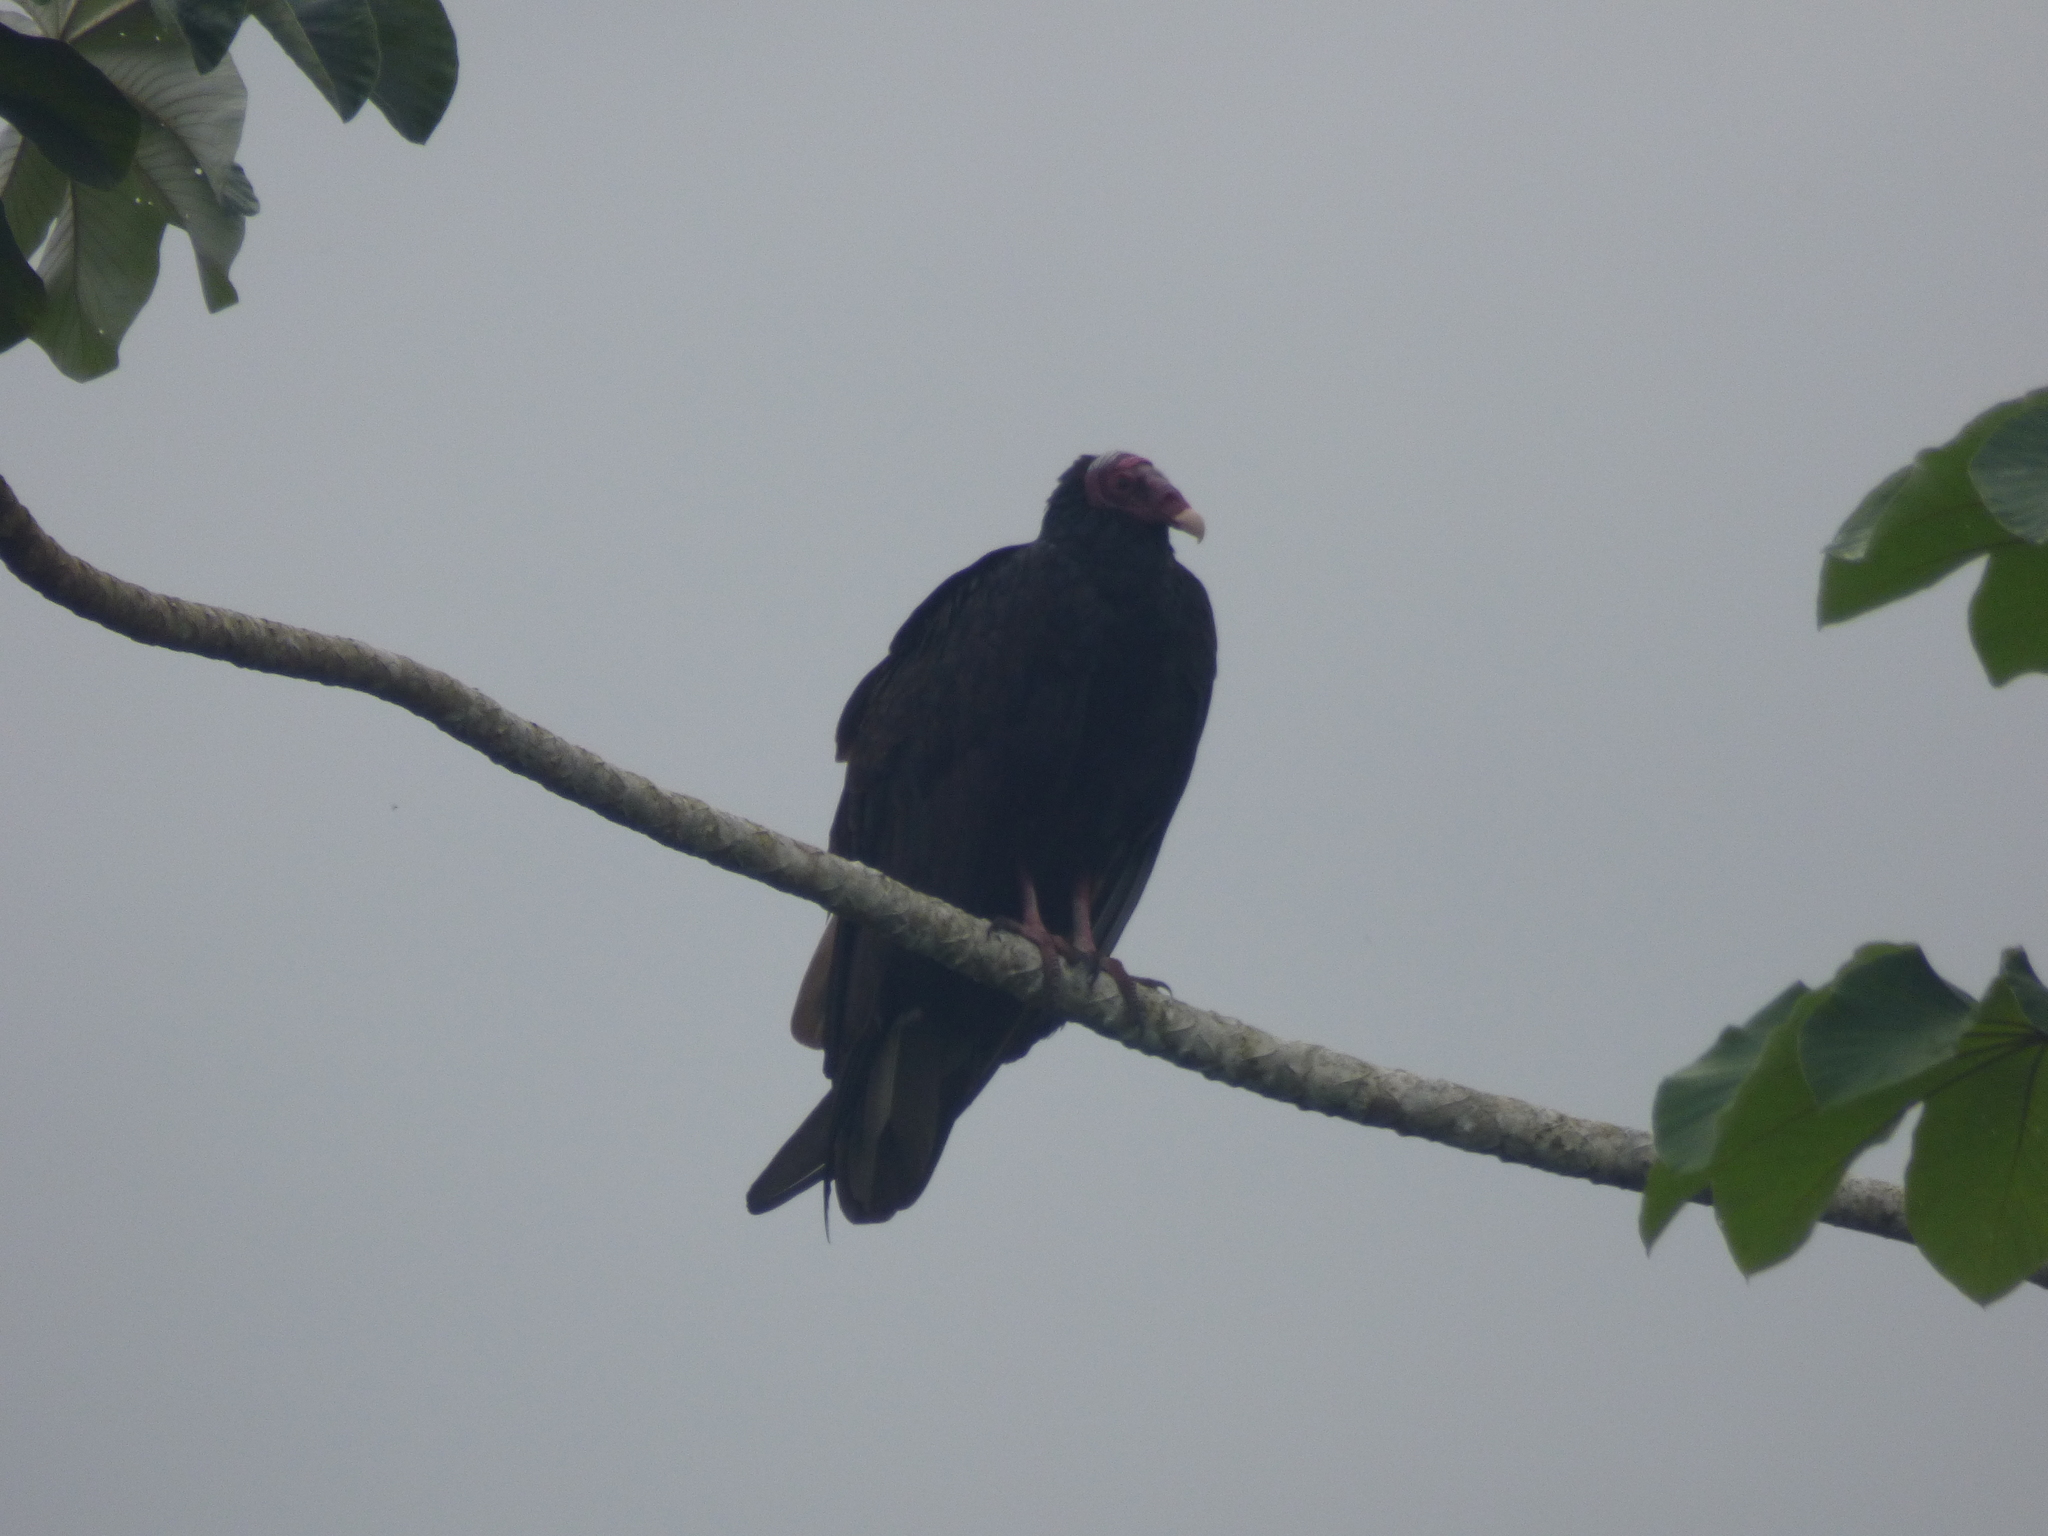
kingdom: Animalia
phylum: Chordata
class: Aves
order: Accipitriformes
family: Cathartidae
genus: Cathartes
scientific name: Cathartes aura
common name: Turkey vulture
